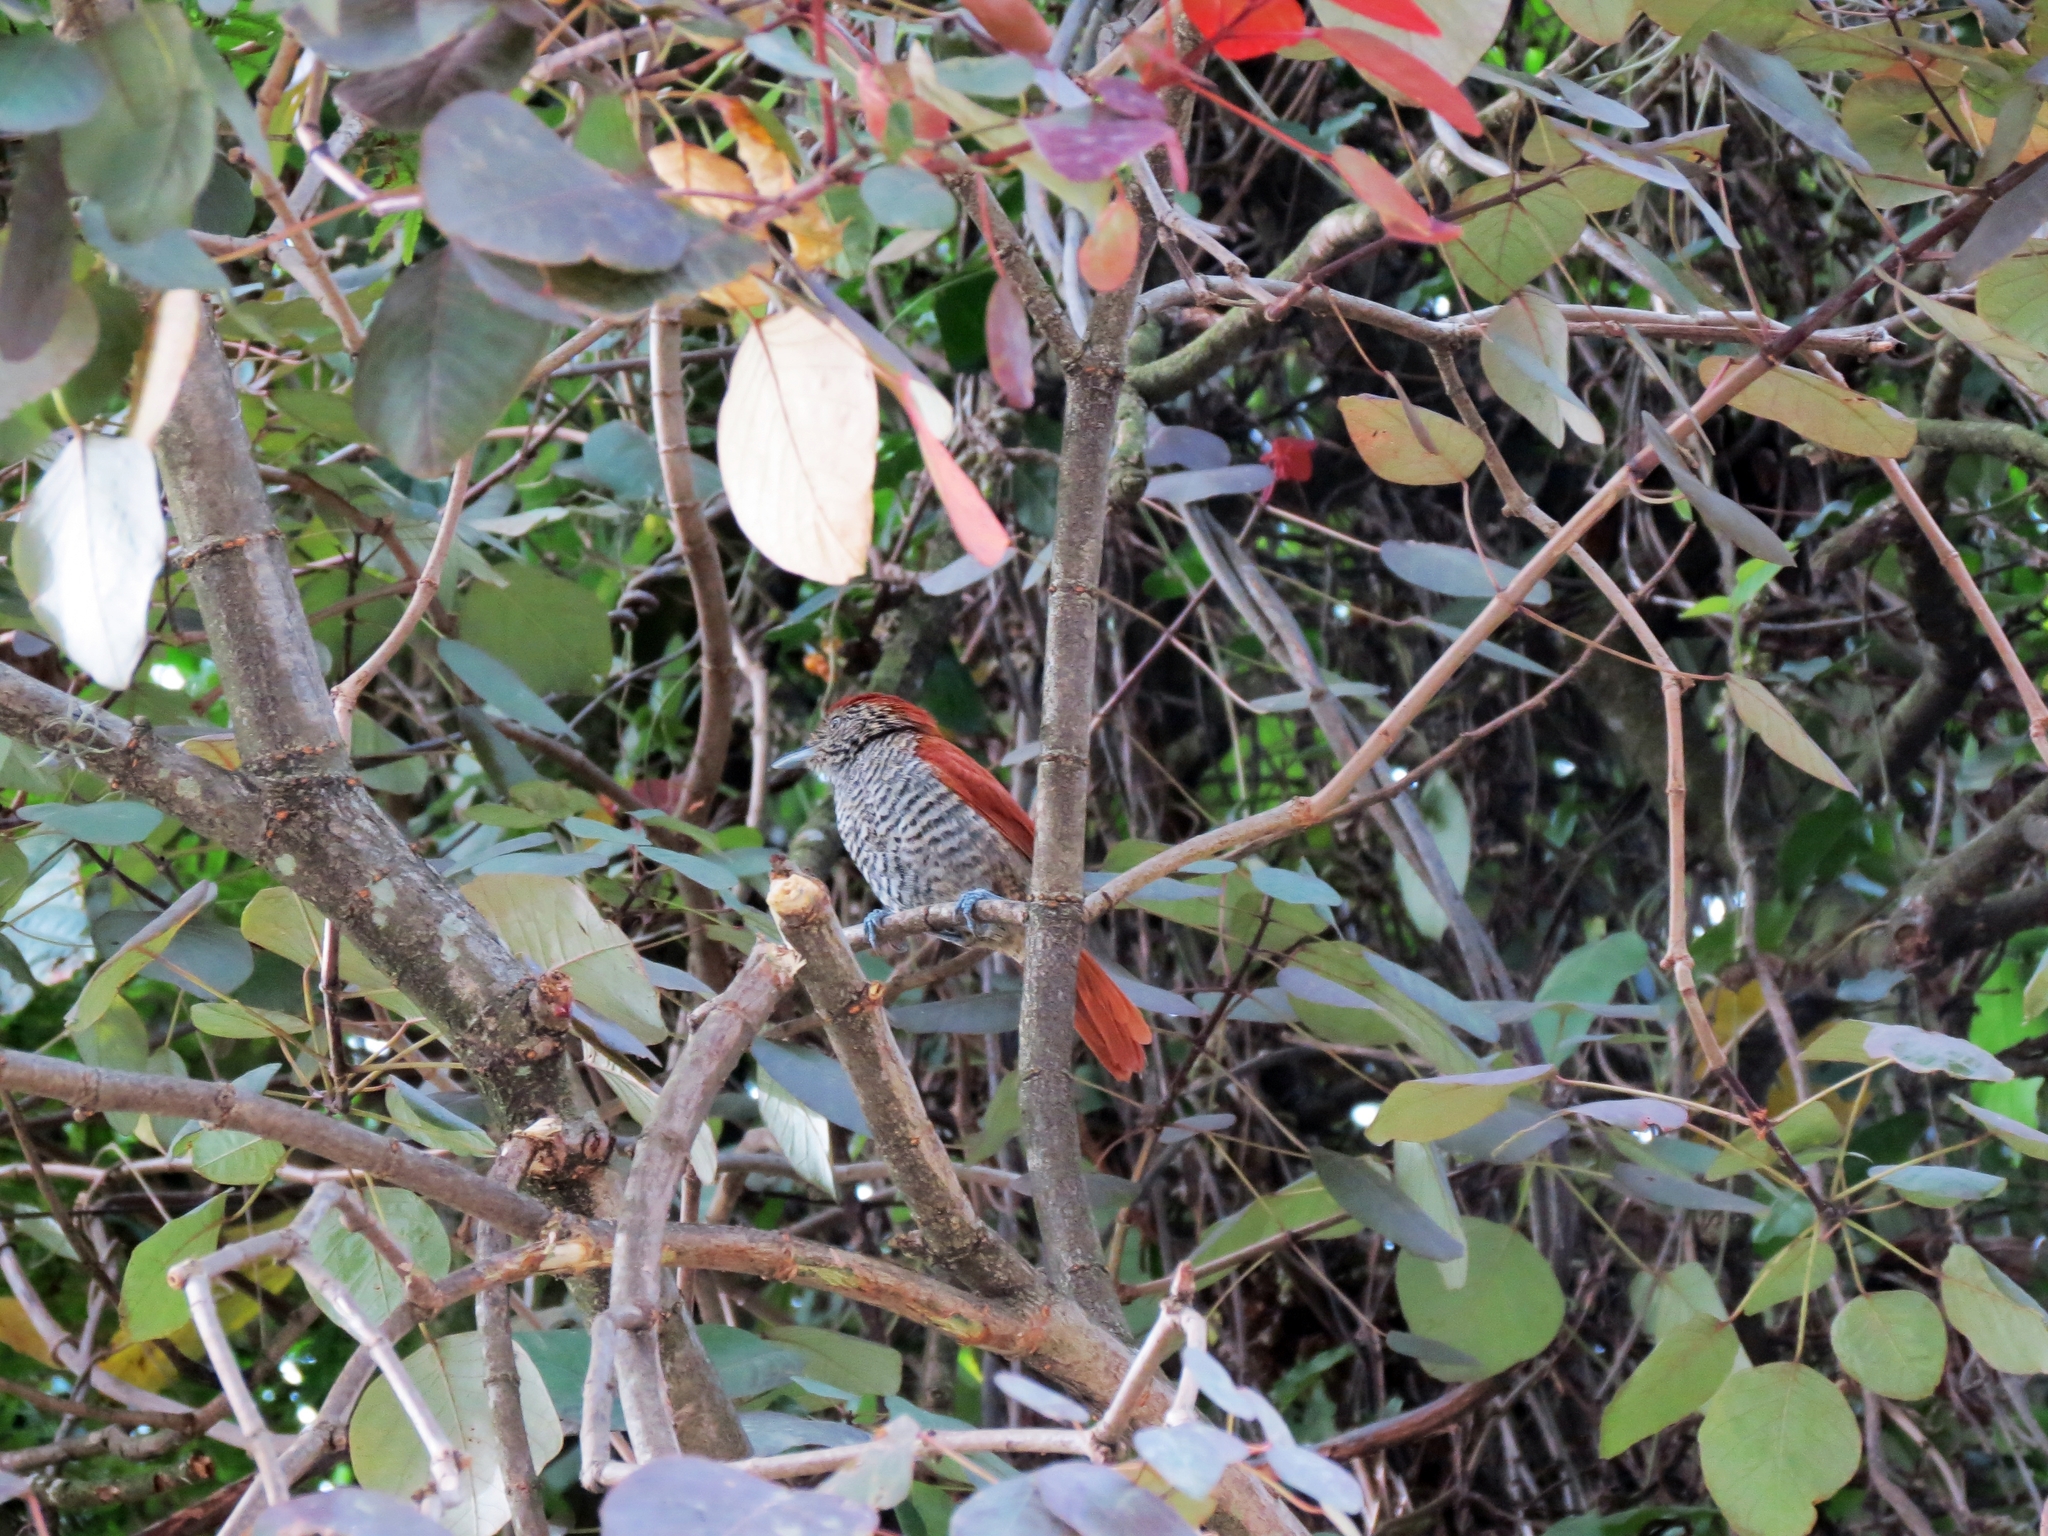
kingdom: Animalia
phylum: Chordata
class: Aves
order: Passeriformes
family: Thamnophilidae
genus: Thamnophilus
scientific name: Thamnophilus multistriatus
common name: Bar-crested antshrike
